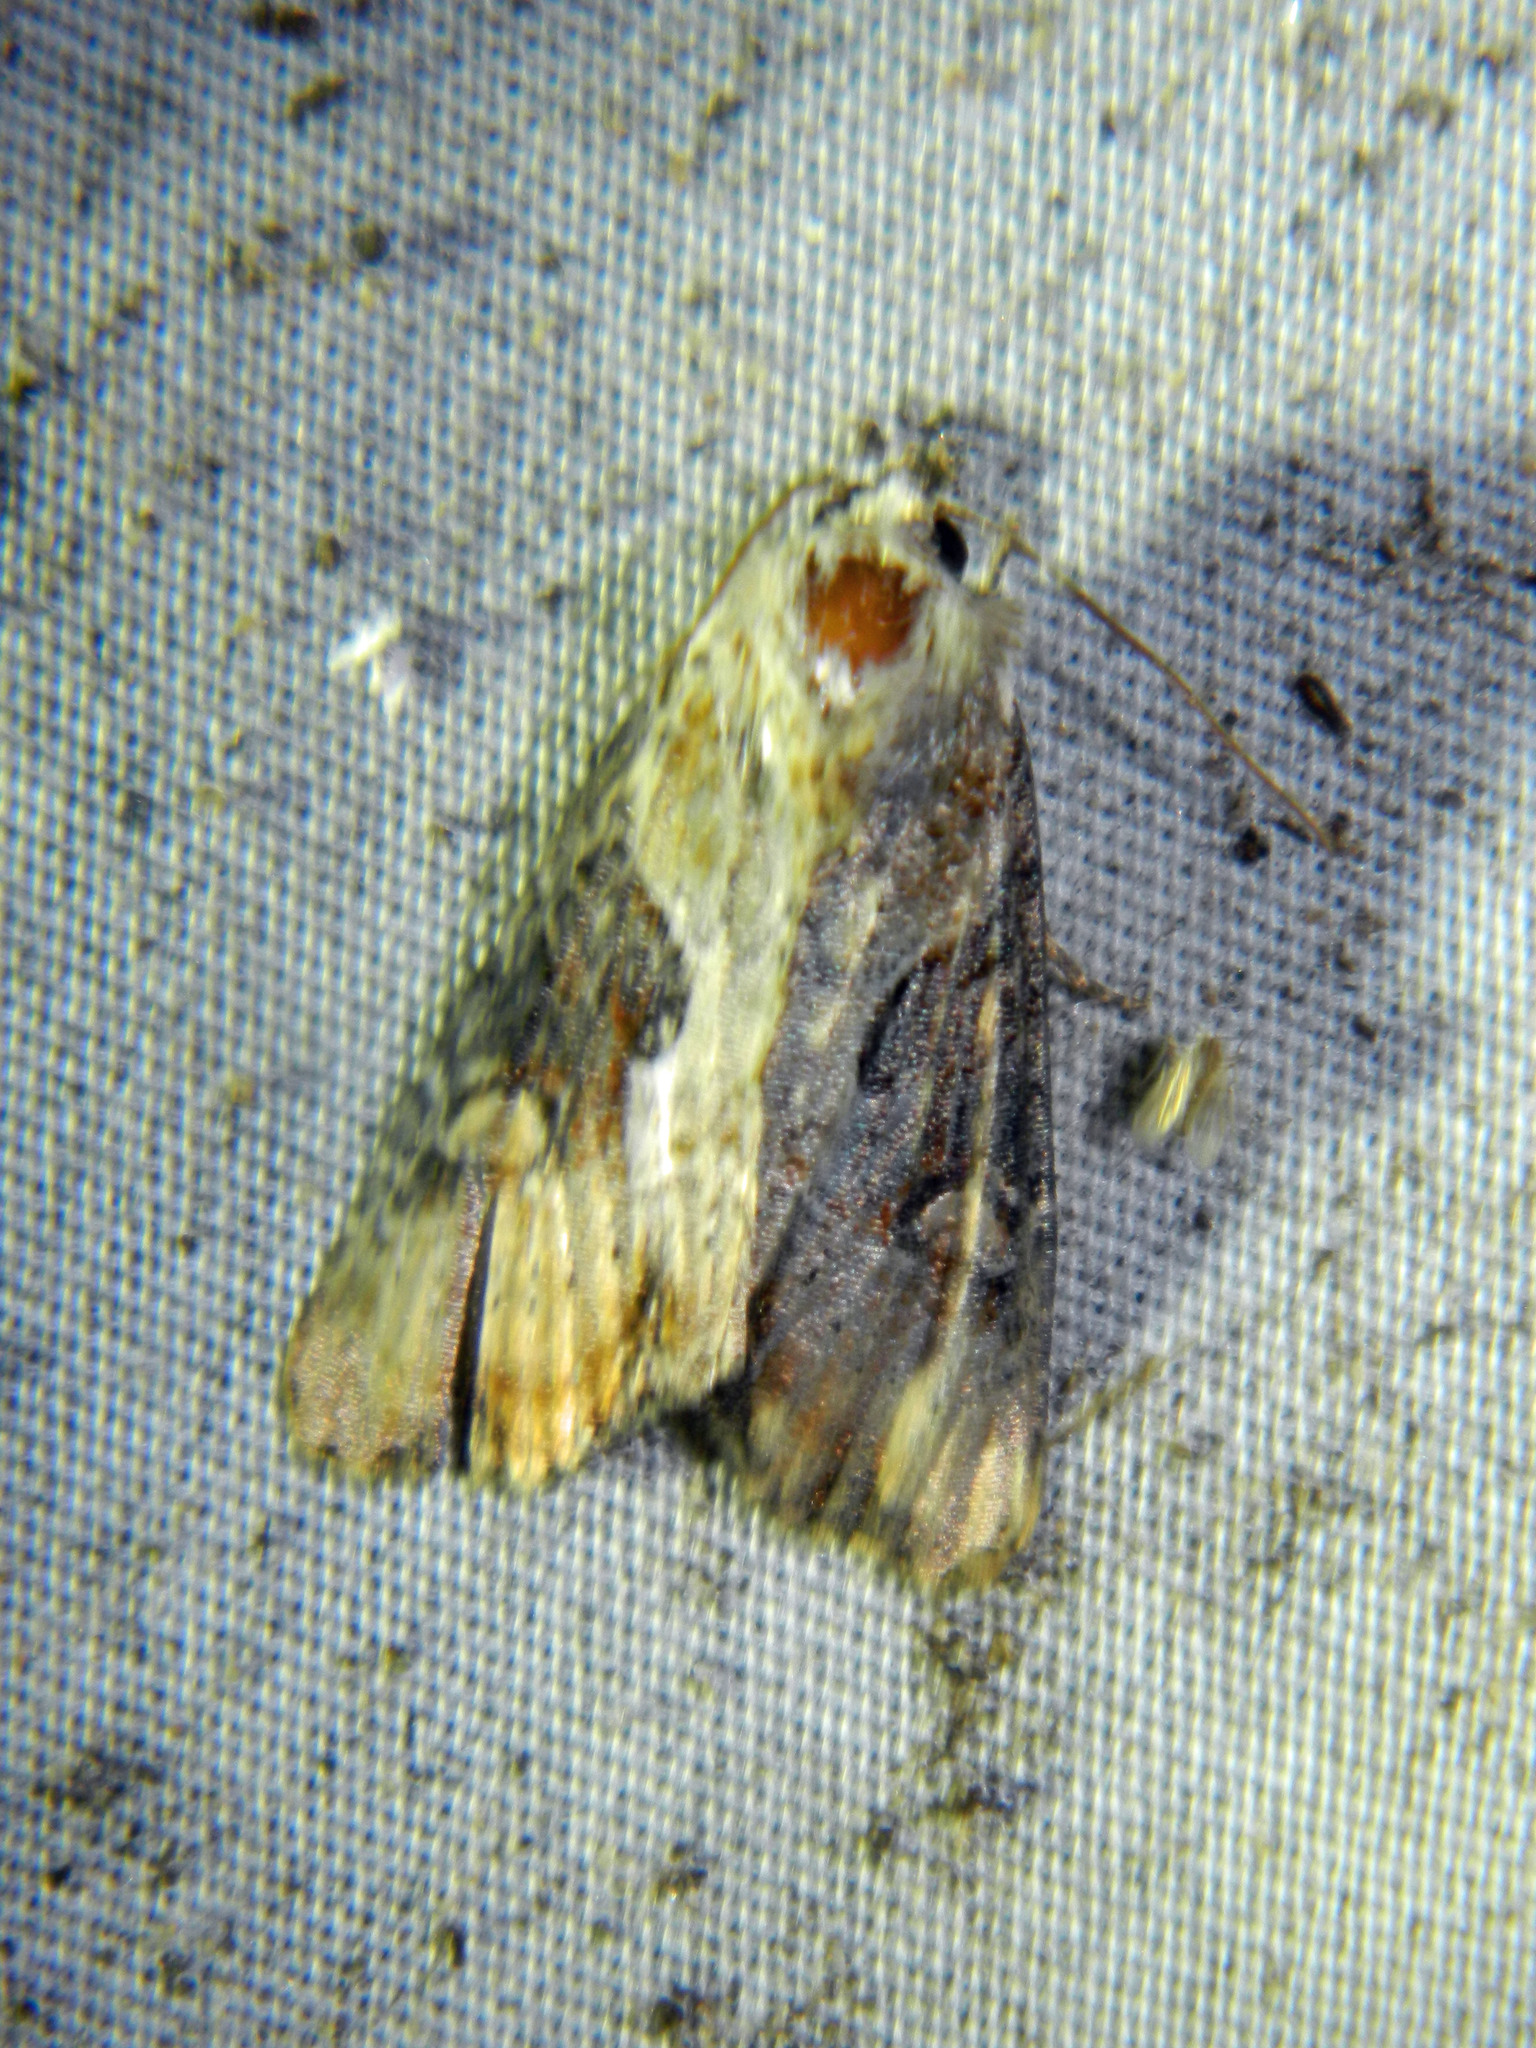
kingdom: Animalia
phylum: Arthropoda
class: Insecta
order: Lepidoptera
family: Noctuidae
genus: Lateroligia
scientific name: Lateroligia ophiogramma
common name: Double lobed
